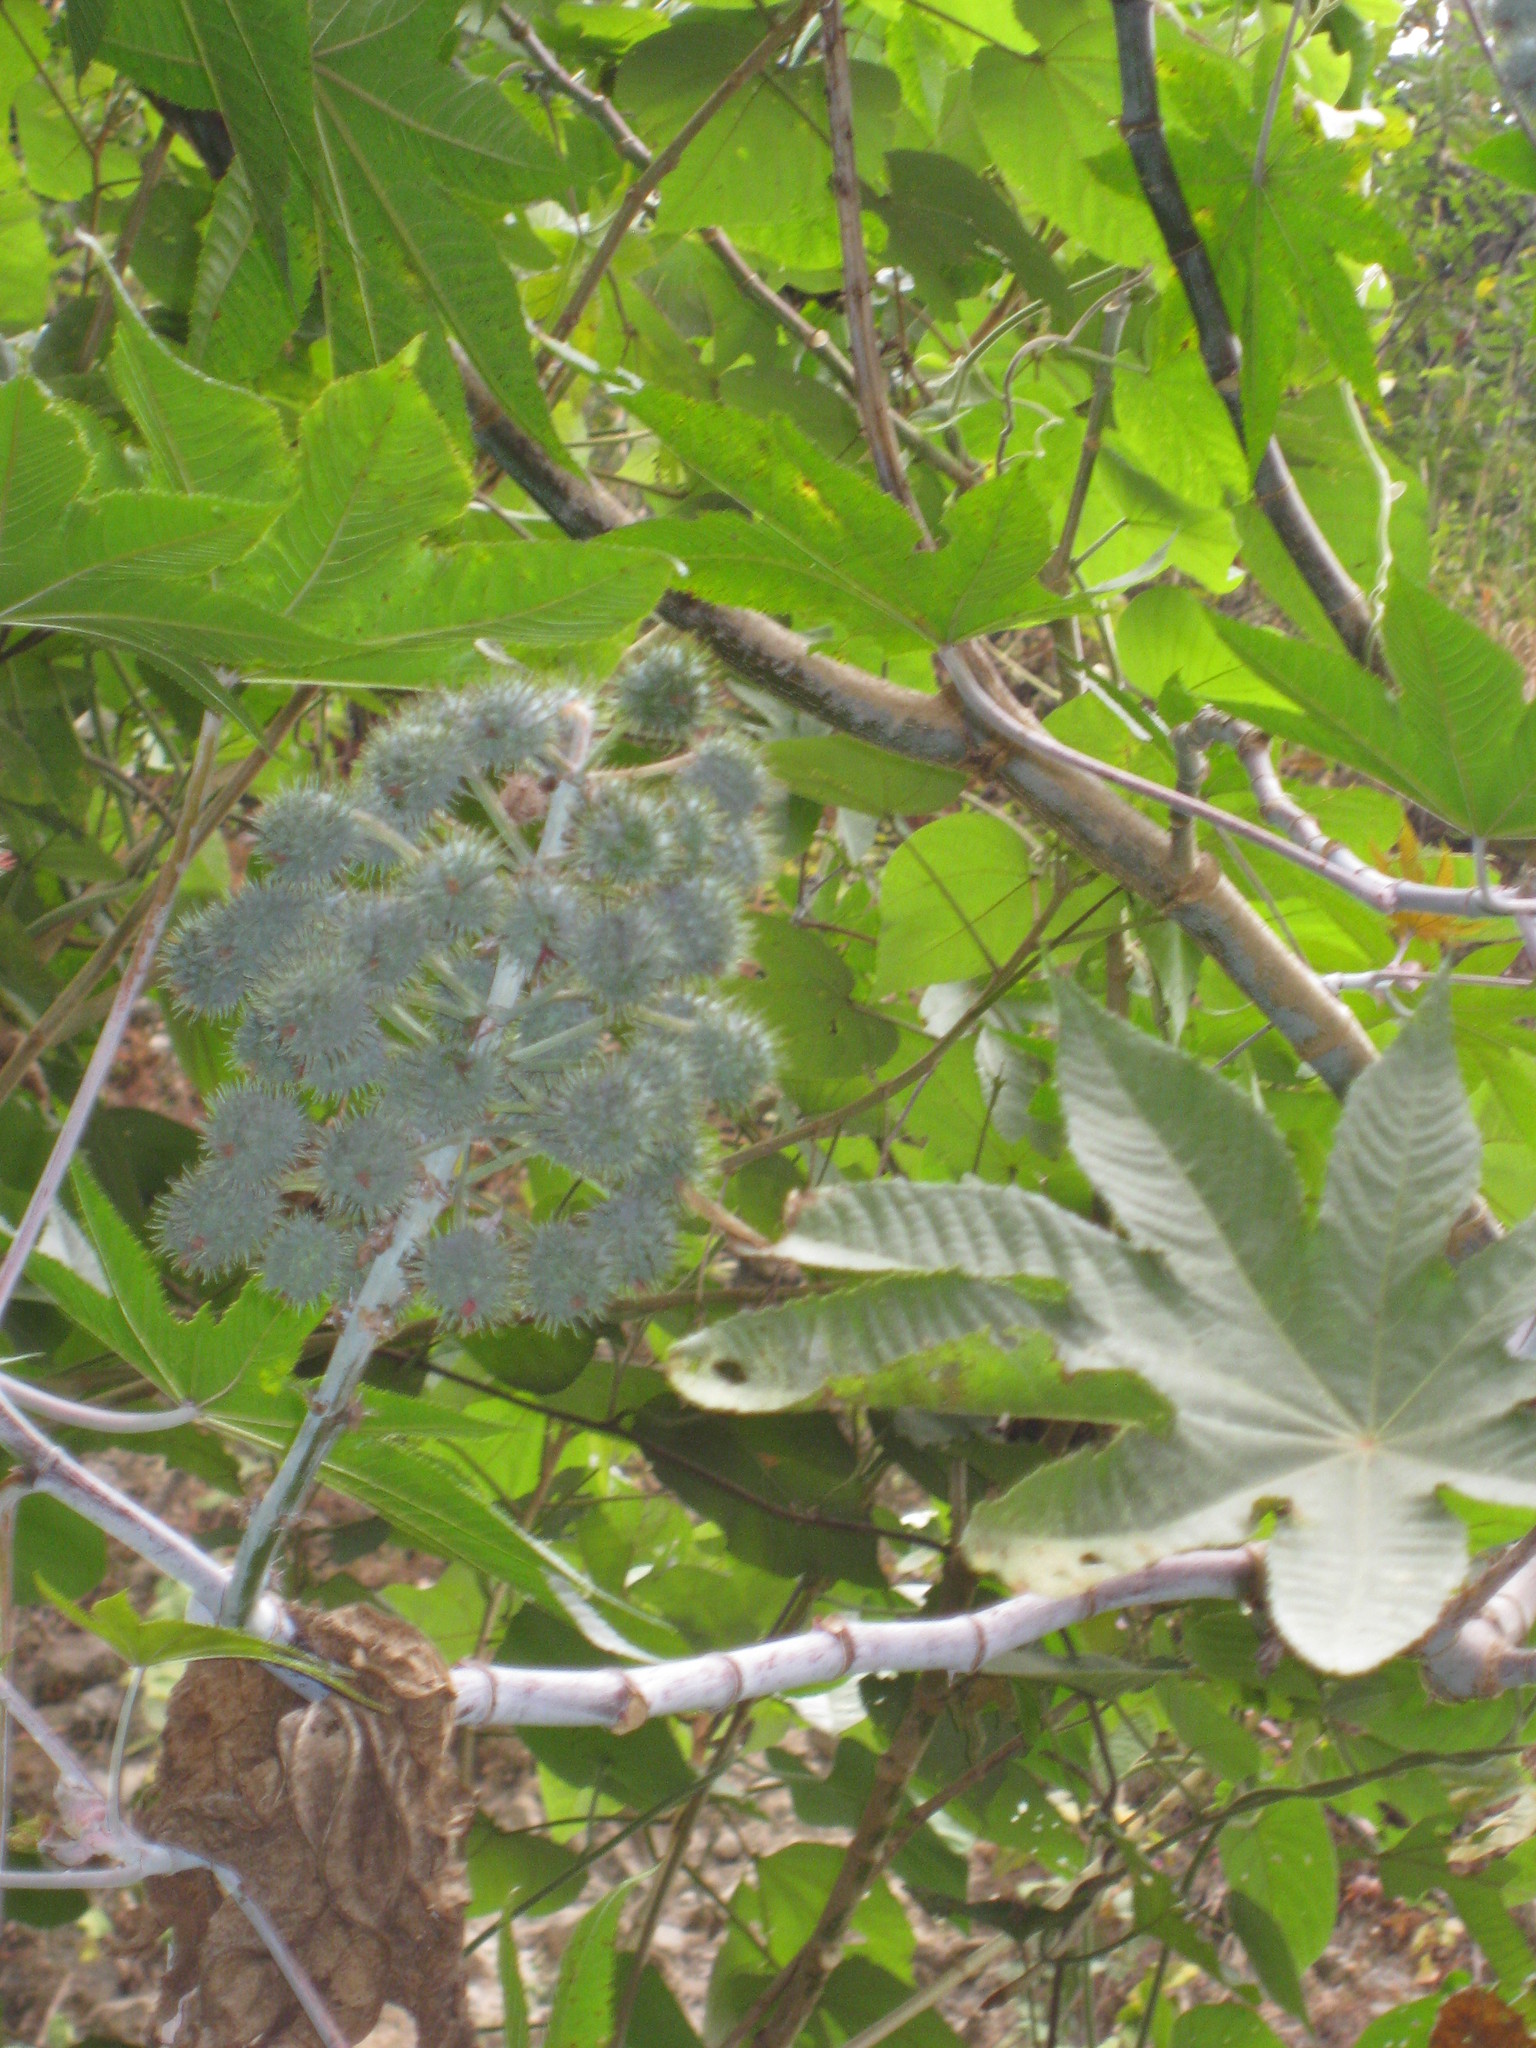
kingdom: Plantae
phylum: Tracheophyta
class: Magnoliopsida
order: Malpighiales
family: Euphorbiaceae
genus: Ricinus
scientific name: Ricinus communis
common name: Castor-oil-plant
